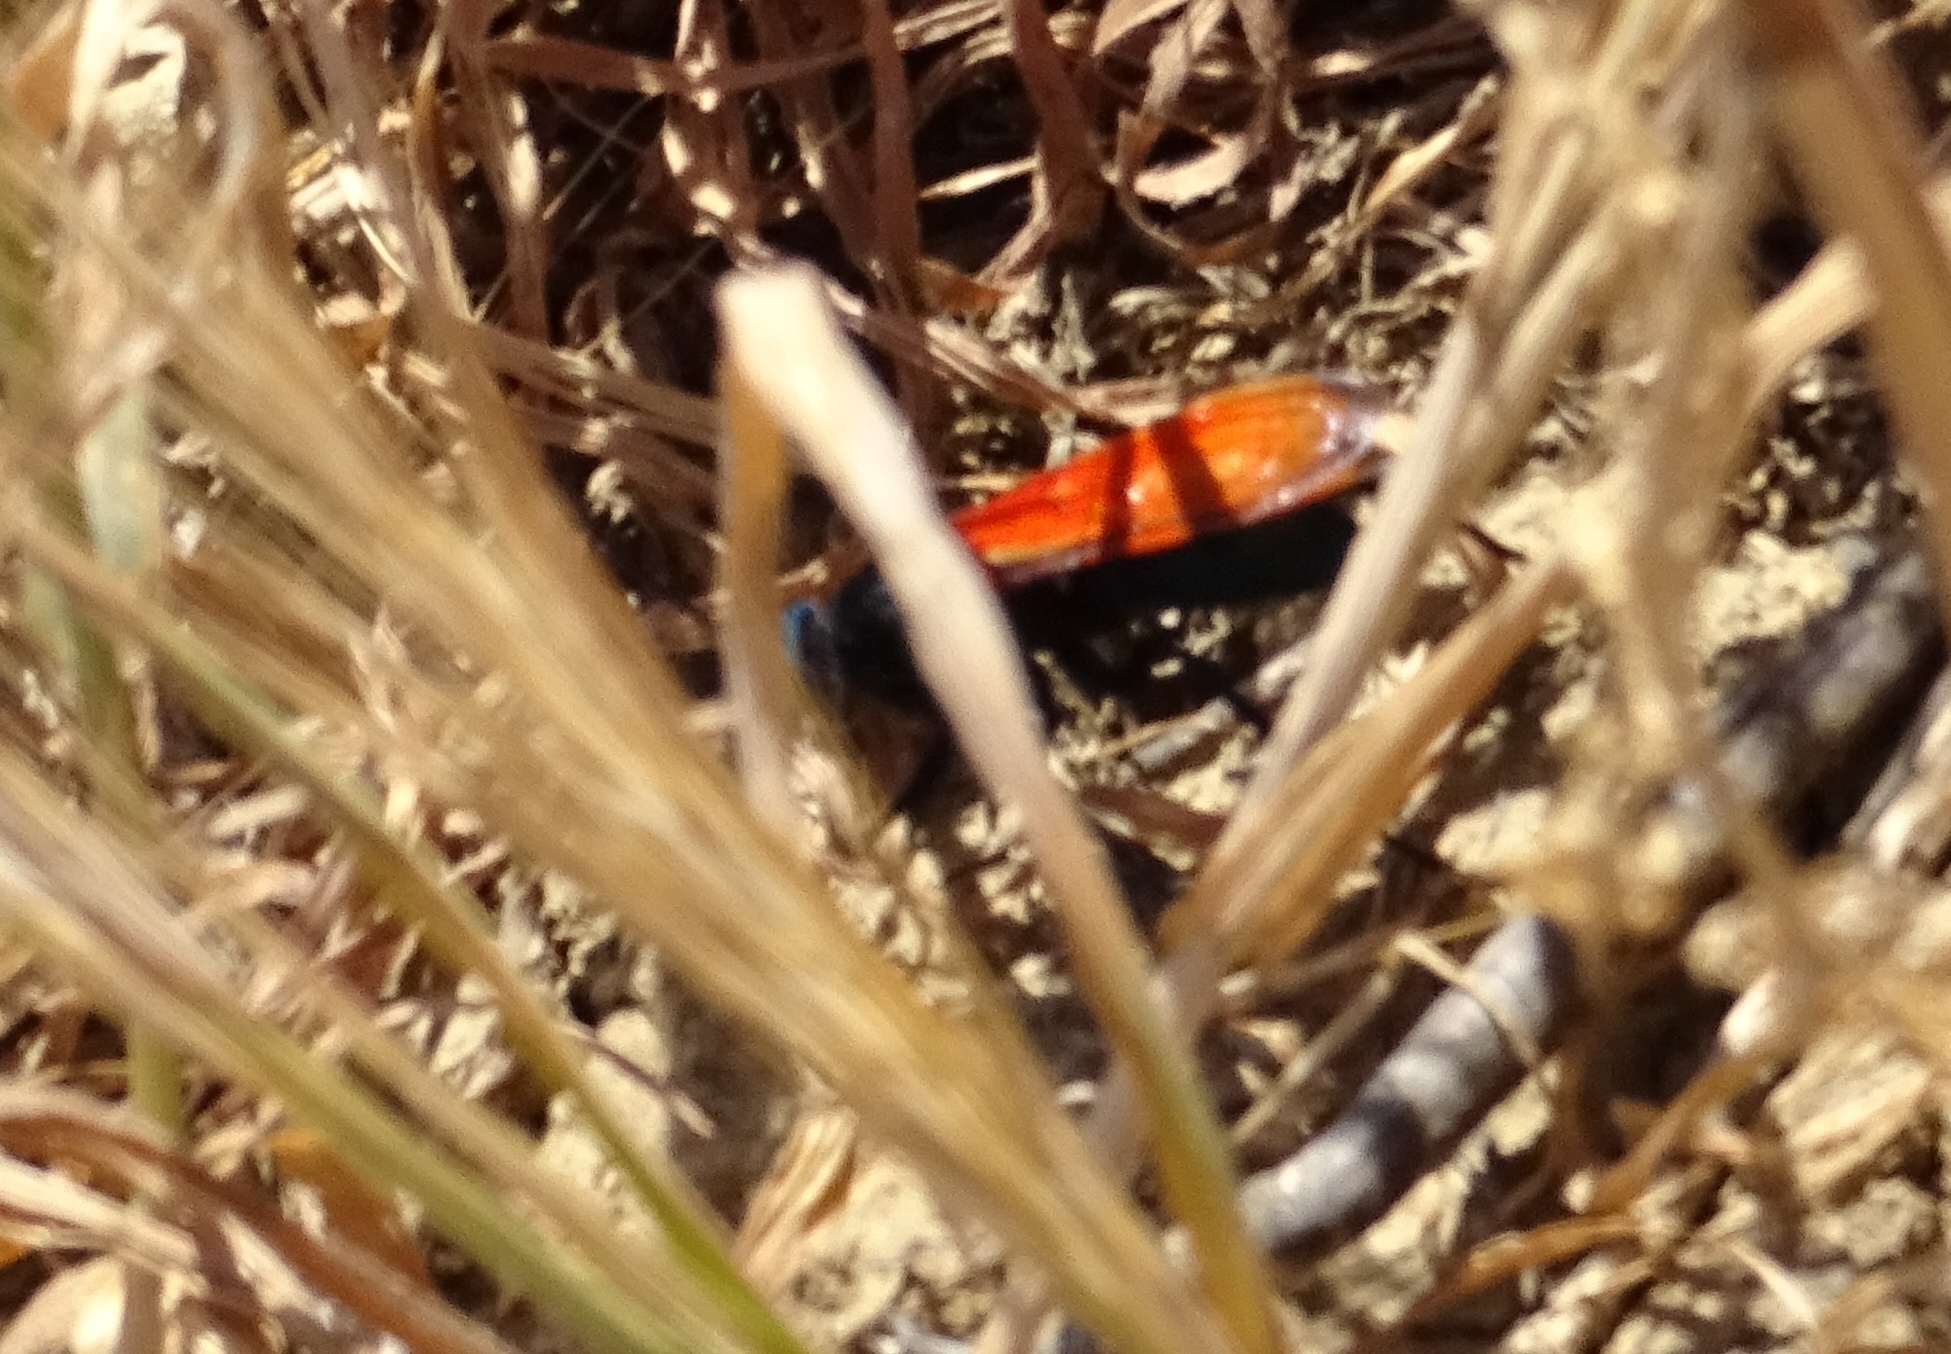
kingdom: Animalia
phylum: Arthropoda
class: Insecta
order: Hymenoptera
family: Pompilidae
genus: Pepsis
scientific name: Pepsis thisbe
